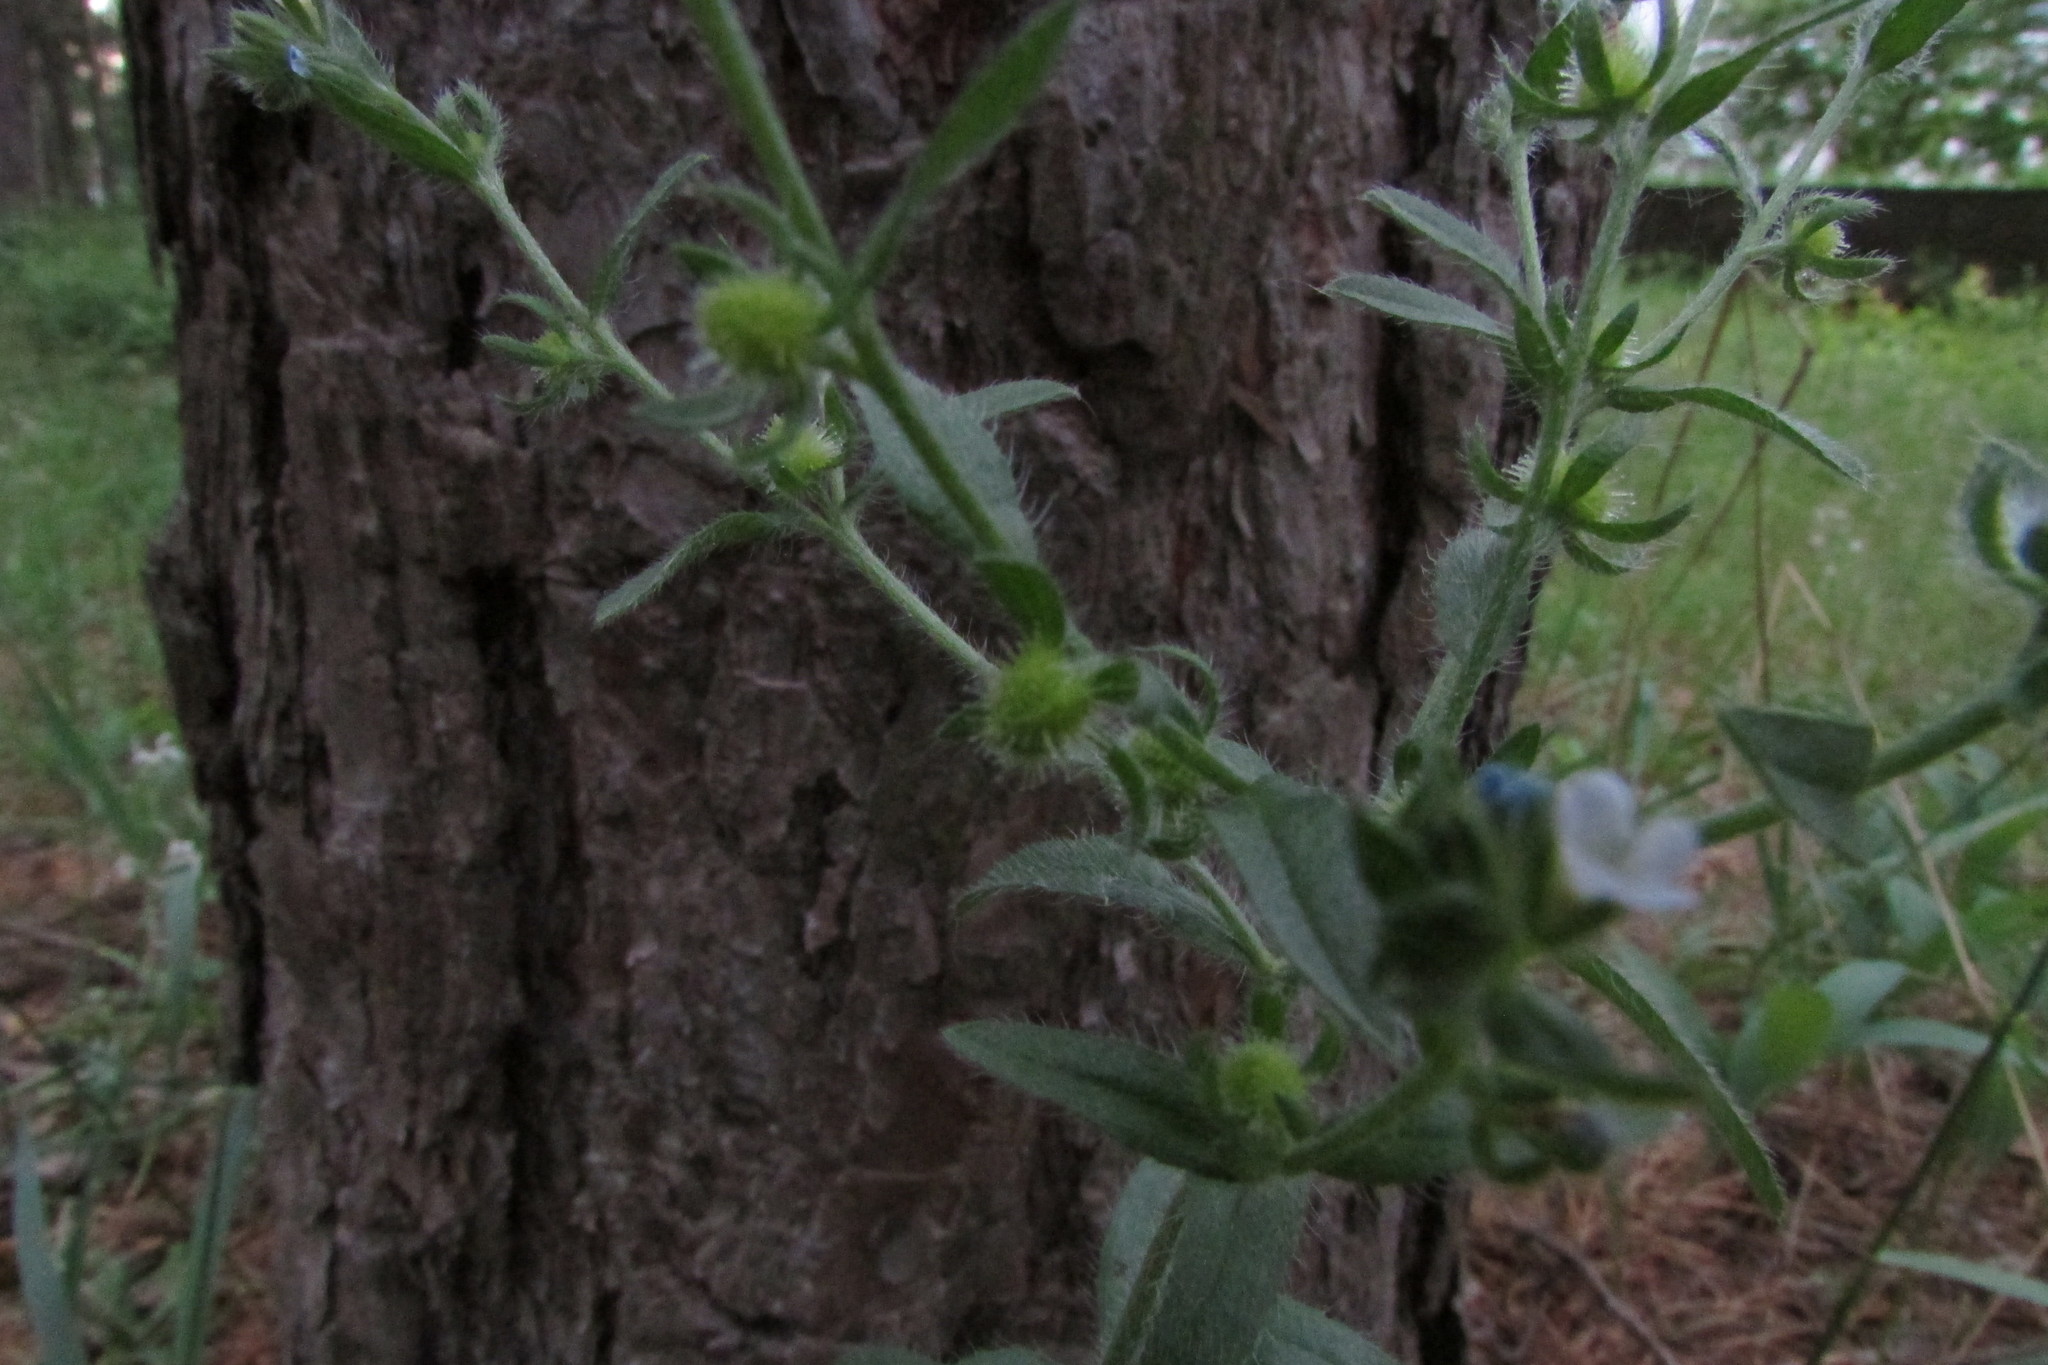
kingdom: Plantae
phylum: Tracheophyta
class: Magnoliopsida
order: Boraginales
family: Boraginaceae
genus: Lappula
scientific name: Lappula squarrosa
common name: European stickseed
